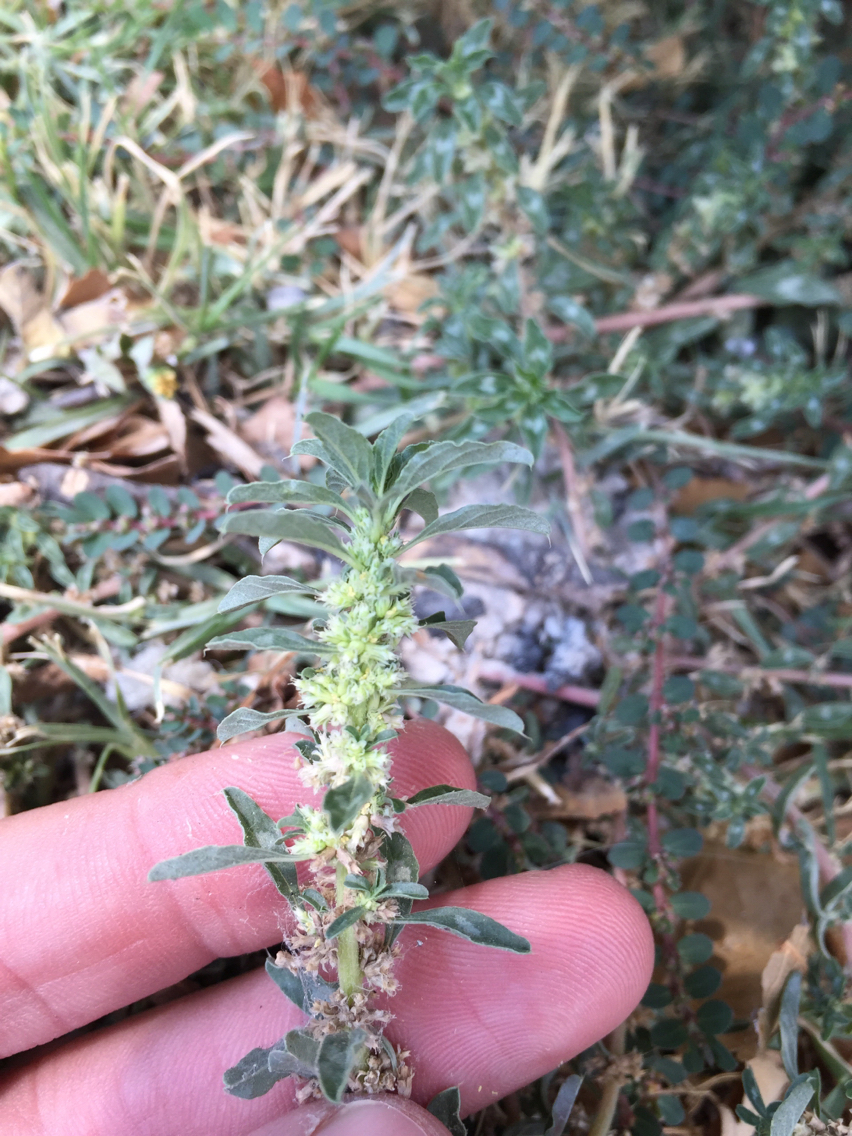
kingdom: Plantae
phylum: Tracheophyta
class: Magnoliopsida
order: Caryophyllales
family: Amaranthaceae
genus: Amaranthus
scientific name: Amaranthus polygonoides
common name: Tropical amaranth
